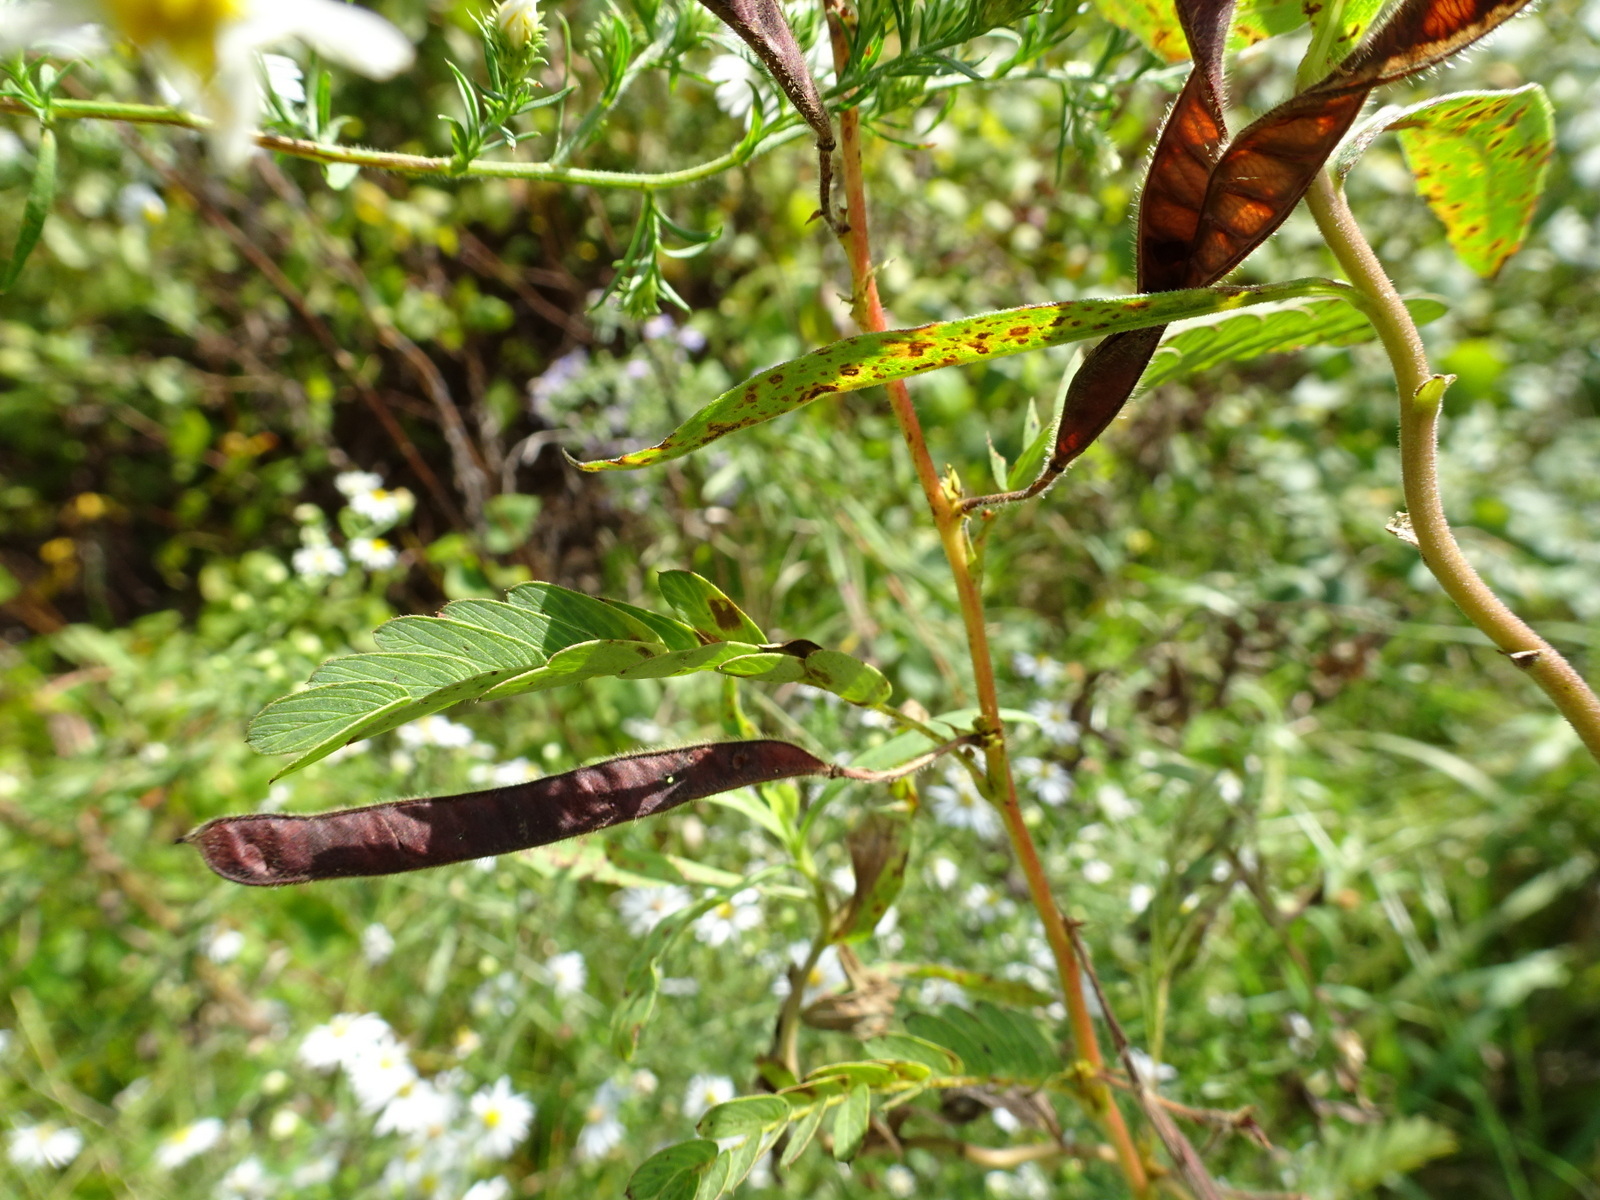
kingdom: Plantae
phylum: Tracheophyta
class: Magnoliopsida
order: Fabales
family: Fabaceae
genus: Chamaecrista
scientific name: Chamaecrista fasciculata
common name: Golden cassia
